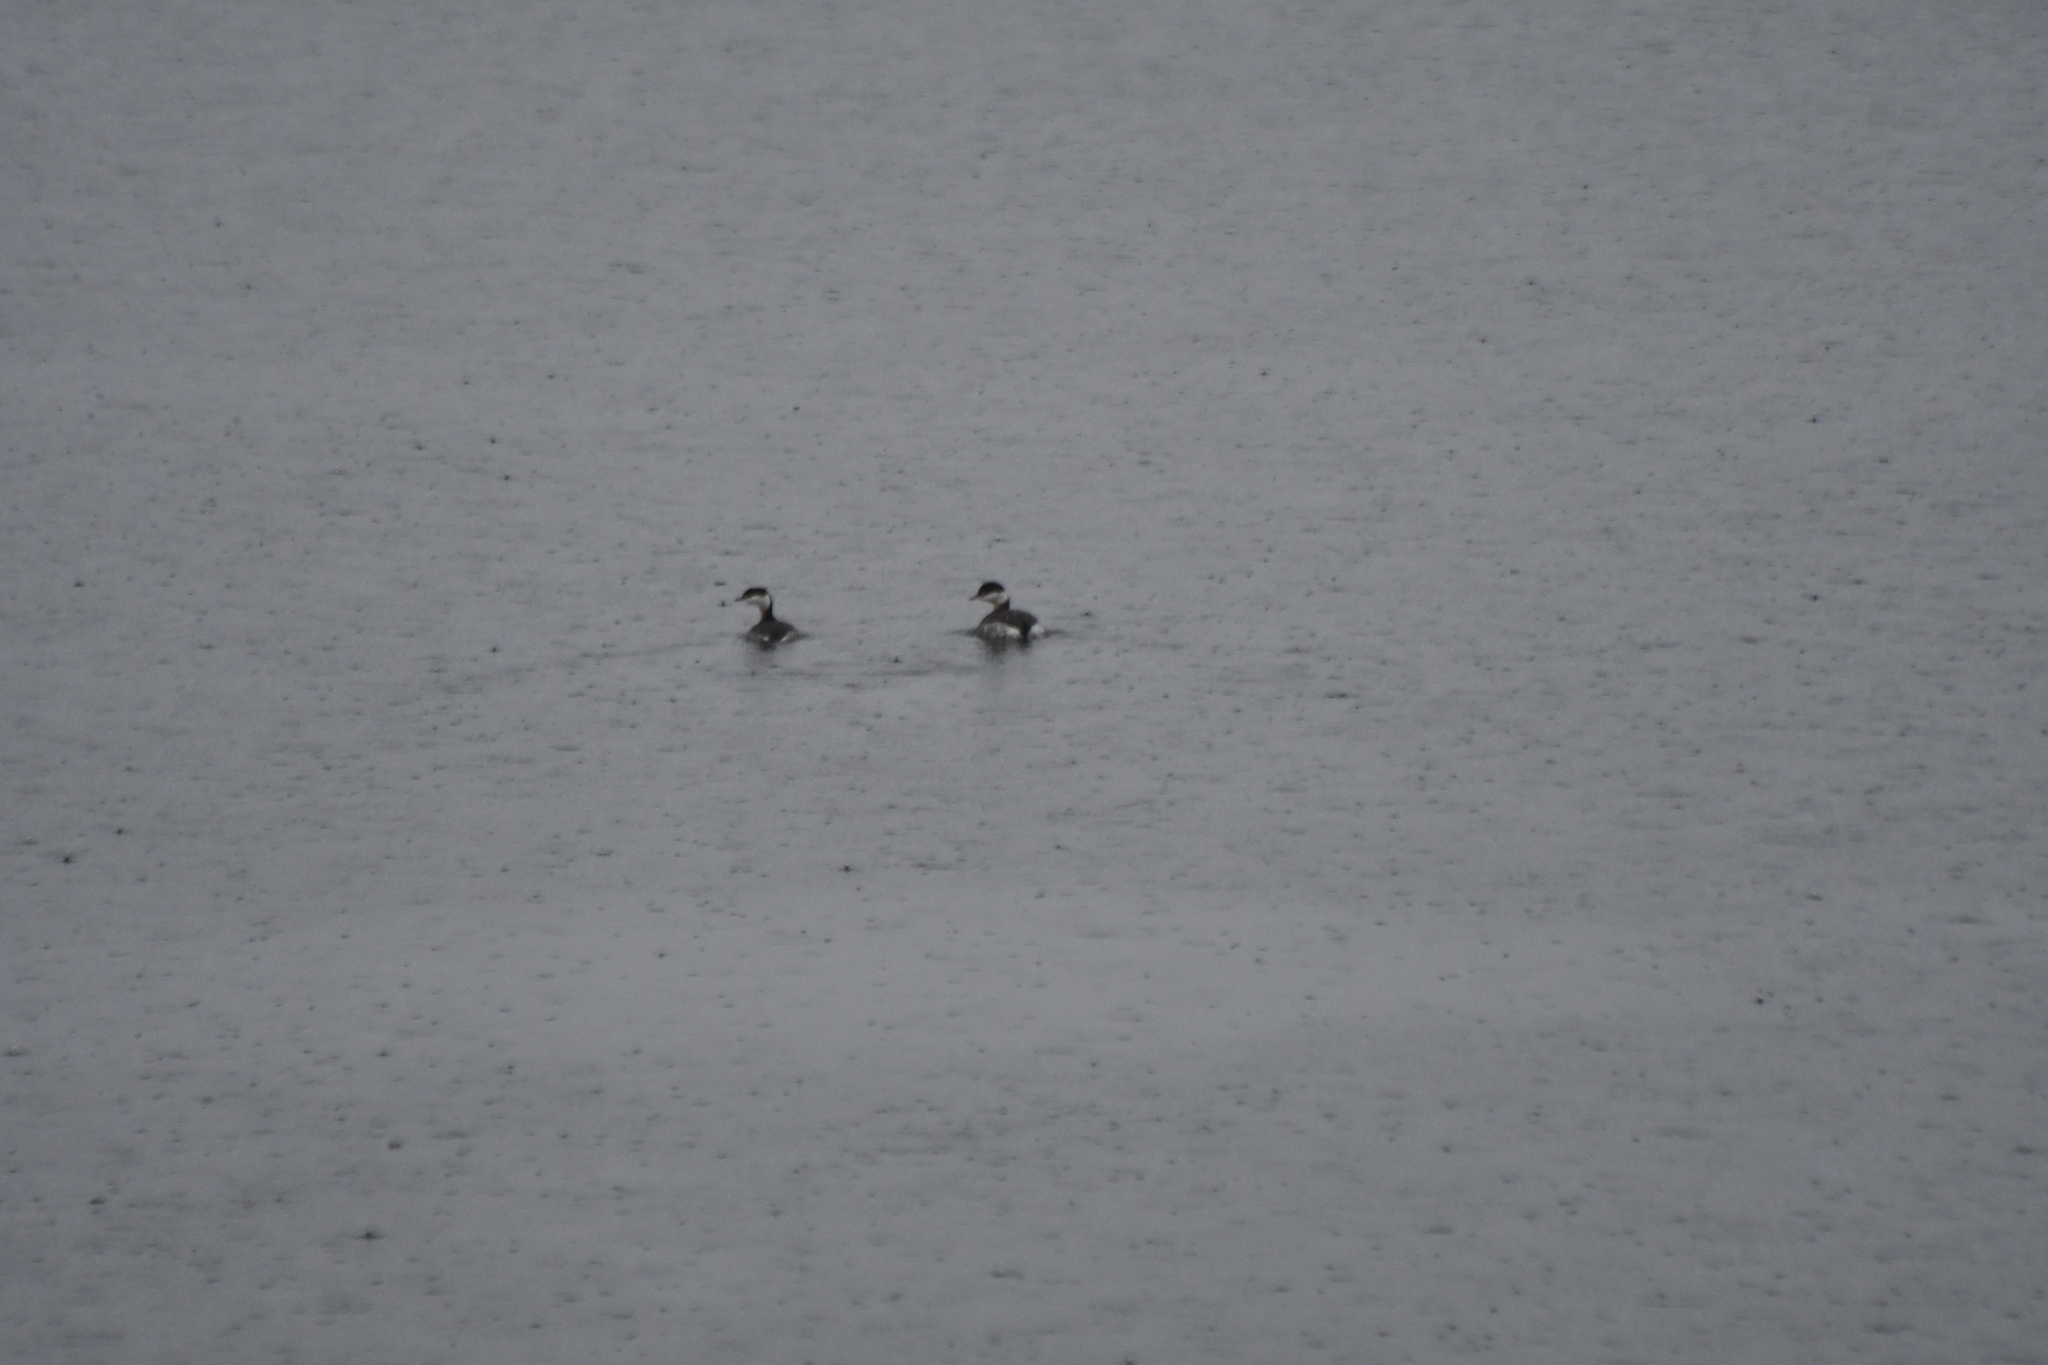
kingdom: Animalia
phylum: Chordata
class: Aves
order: Podicipediformes
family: Podicipedidae
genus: Podiceps
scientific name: Podiceps auritus
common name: Horned grebe
